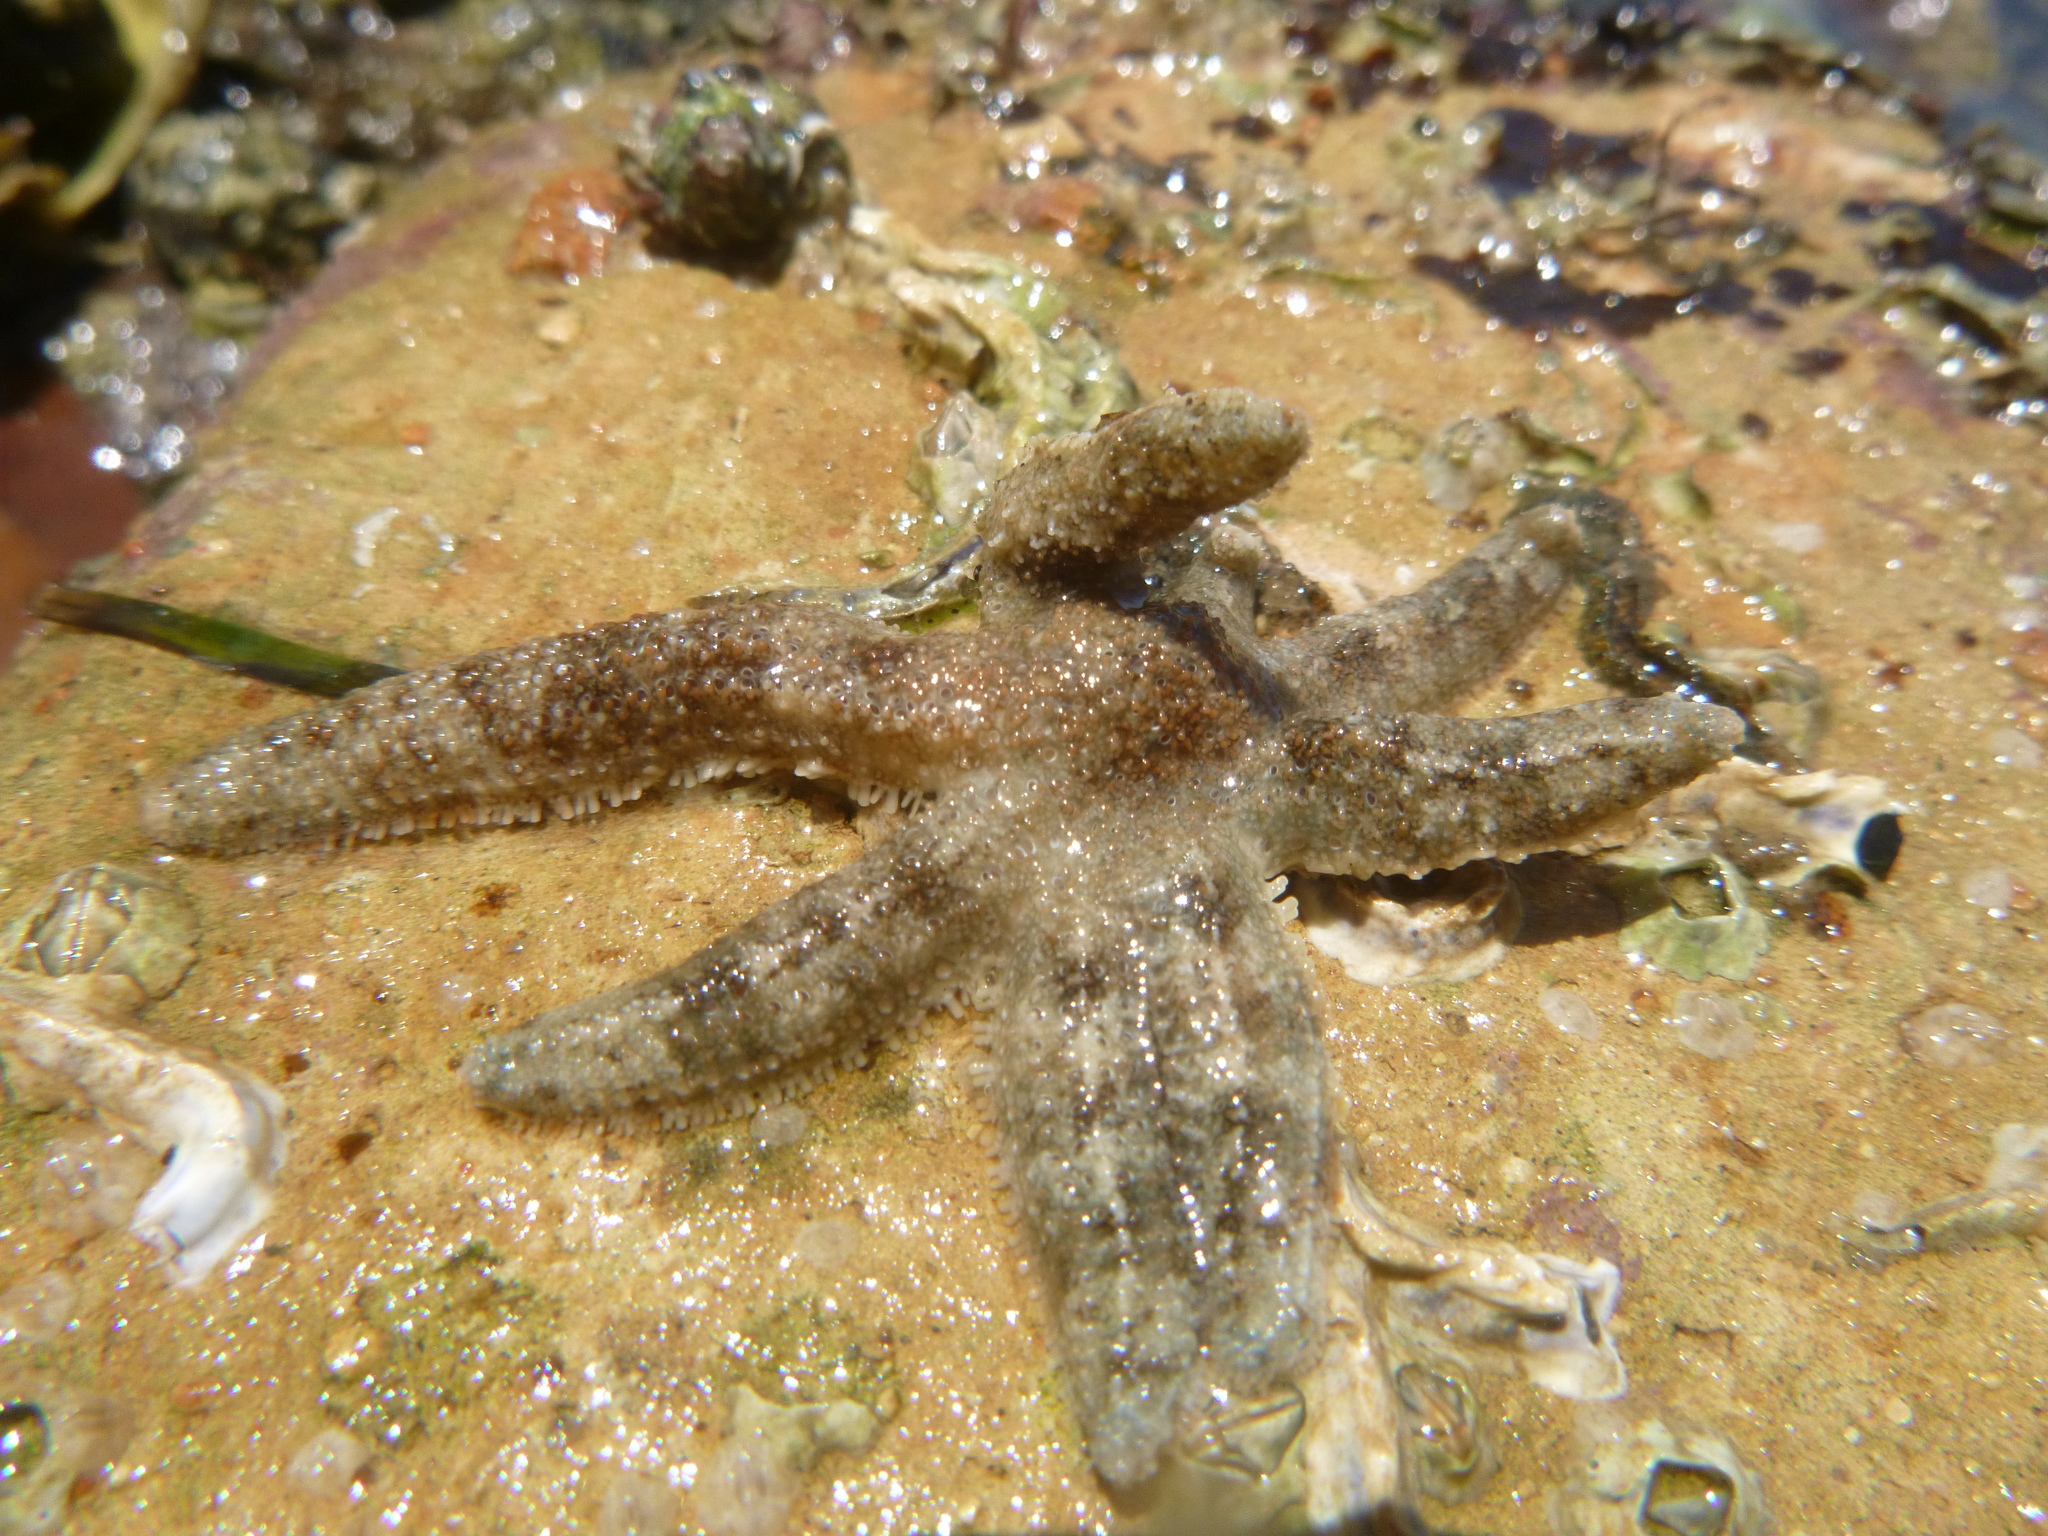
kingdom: Animalia
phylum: Echinodermata
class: Asteroidea
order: Forcipulatida
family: Stichasteridae
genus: Allostichaster
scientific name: Allostichaster polyplax
